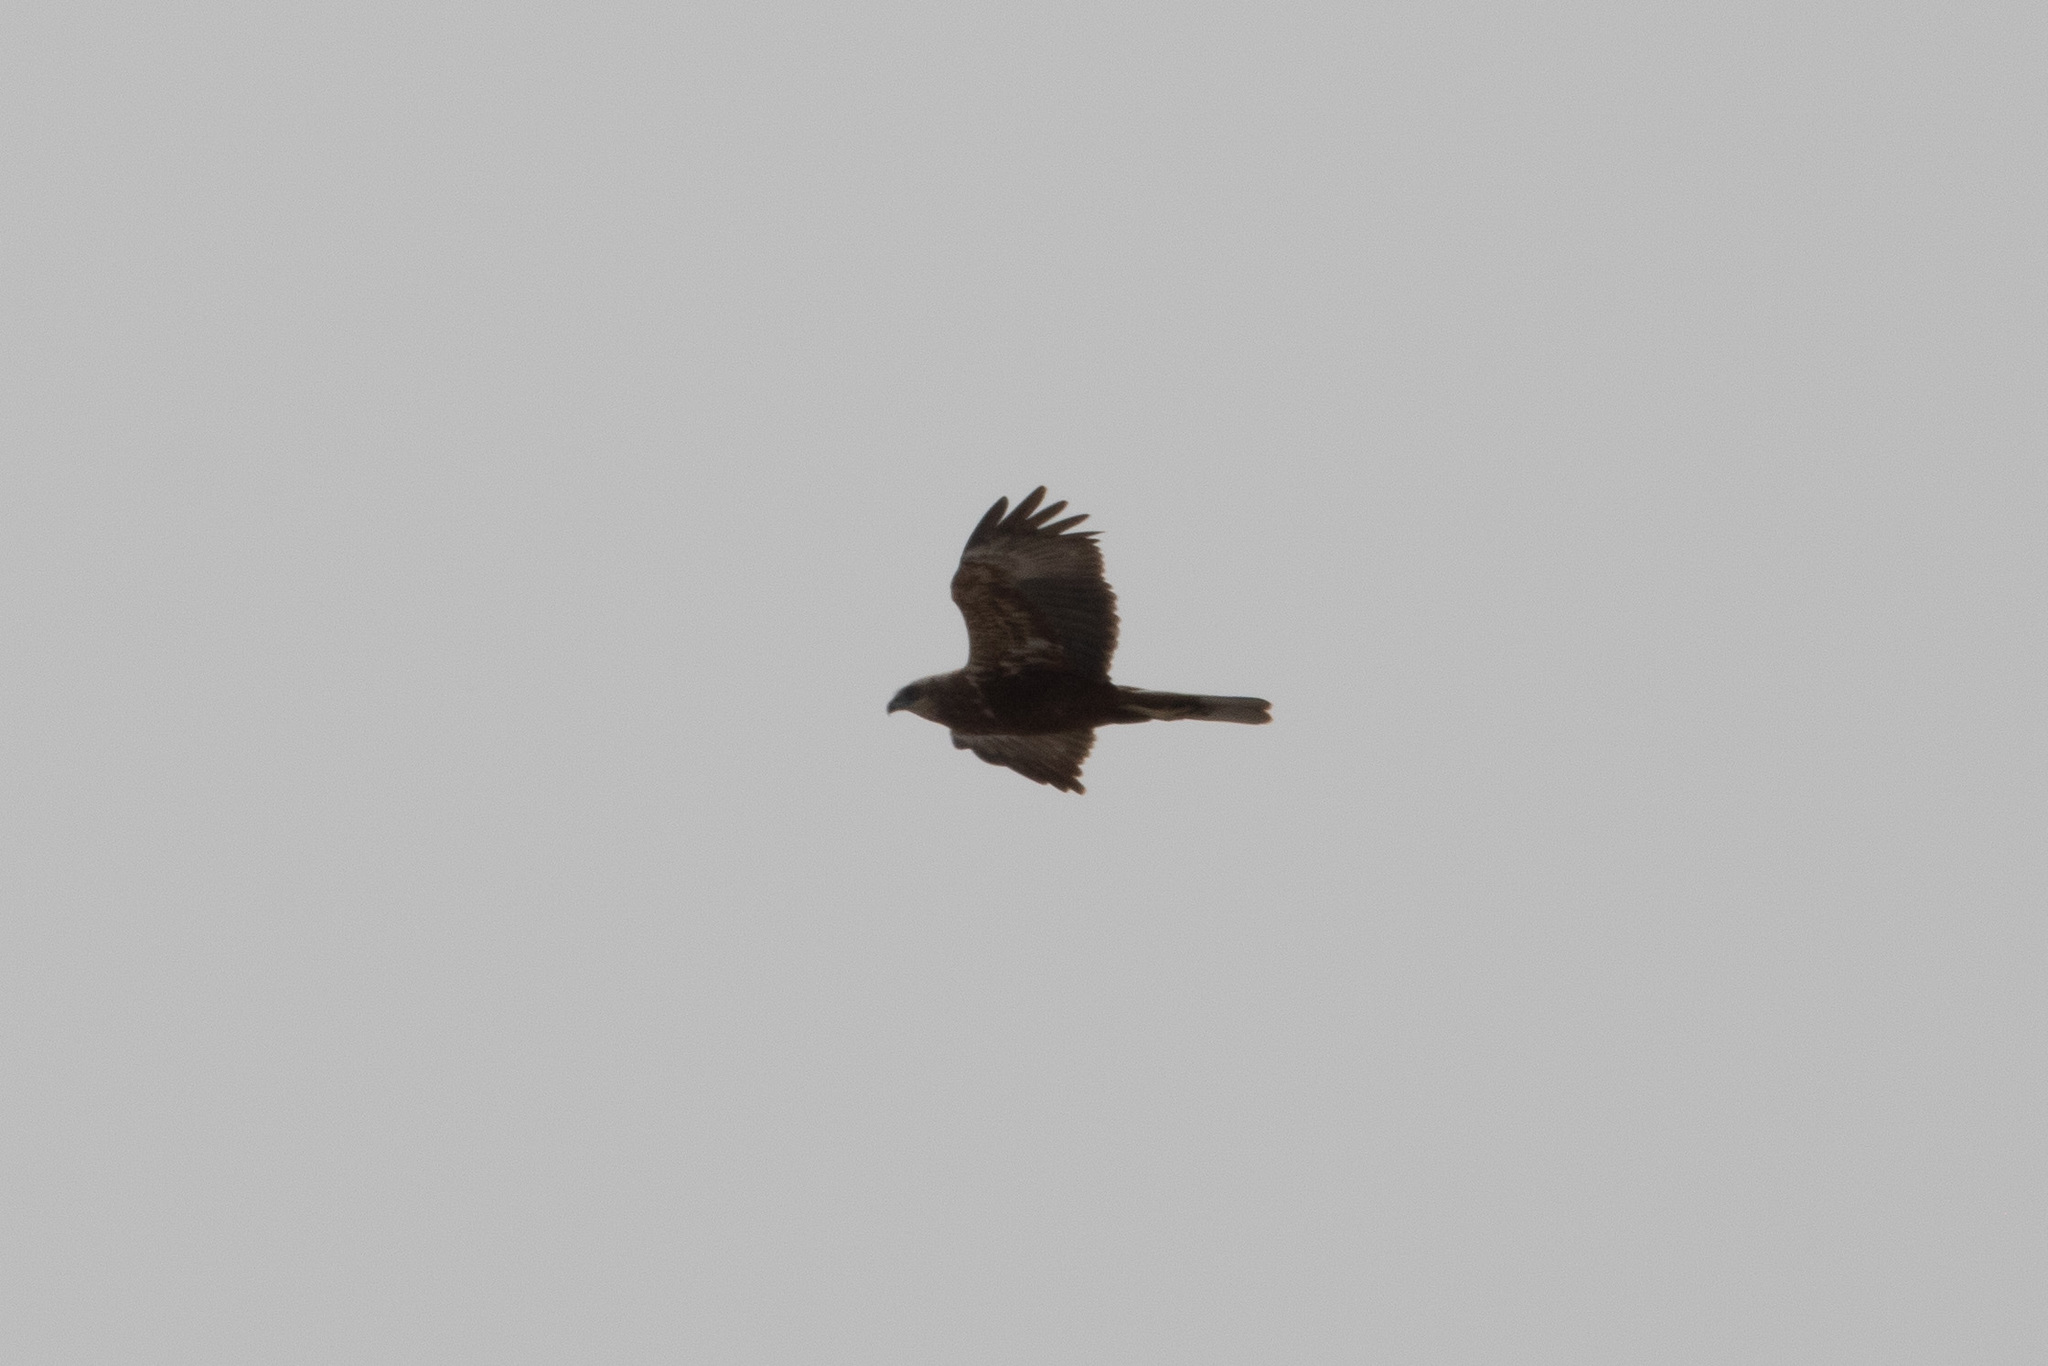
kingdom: Animalia
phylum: Chordata
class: Aves
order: Accipitriformes
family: Accipitridae
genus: Circus
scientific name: Circus aeruginosus
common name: Western marsh harrier
